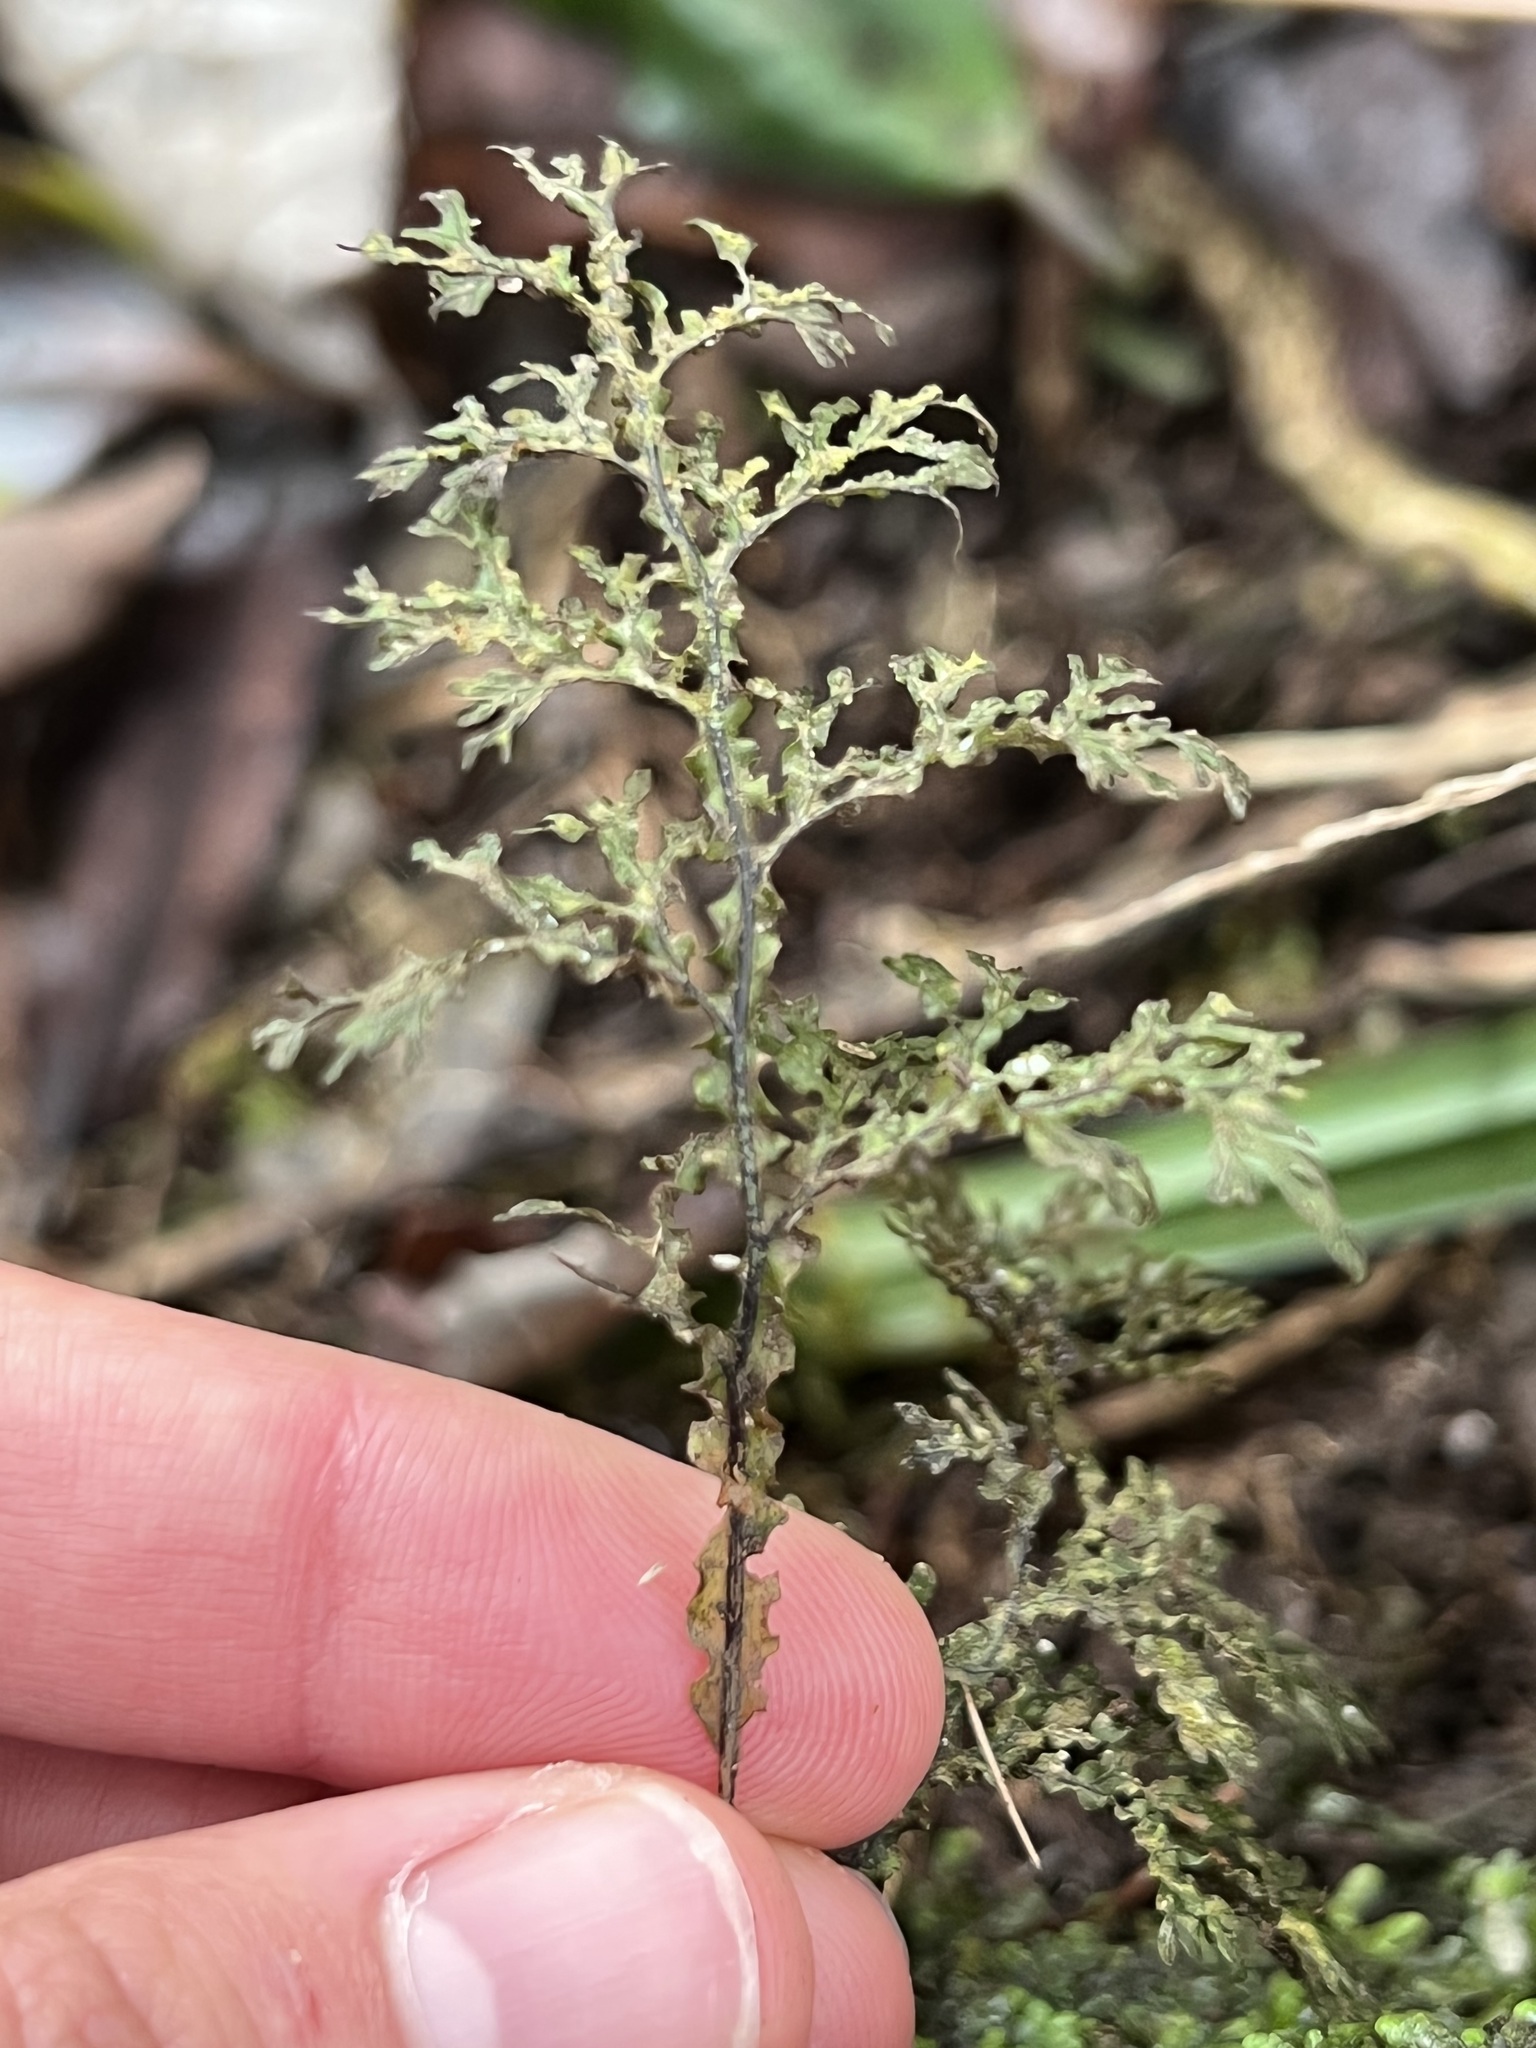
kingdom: Plantae
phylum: Tracheophyta
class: Polypodiopsida
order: Hymenophyllales
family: Hymenophyllaceae
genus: Hymenophyllum
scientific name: Hymenophyllum flexuosum
